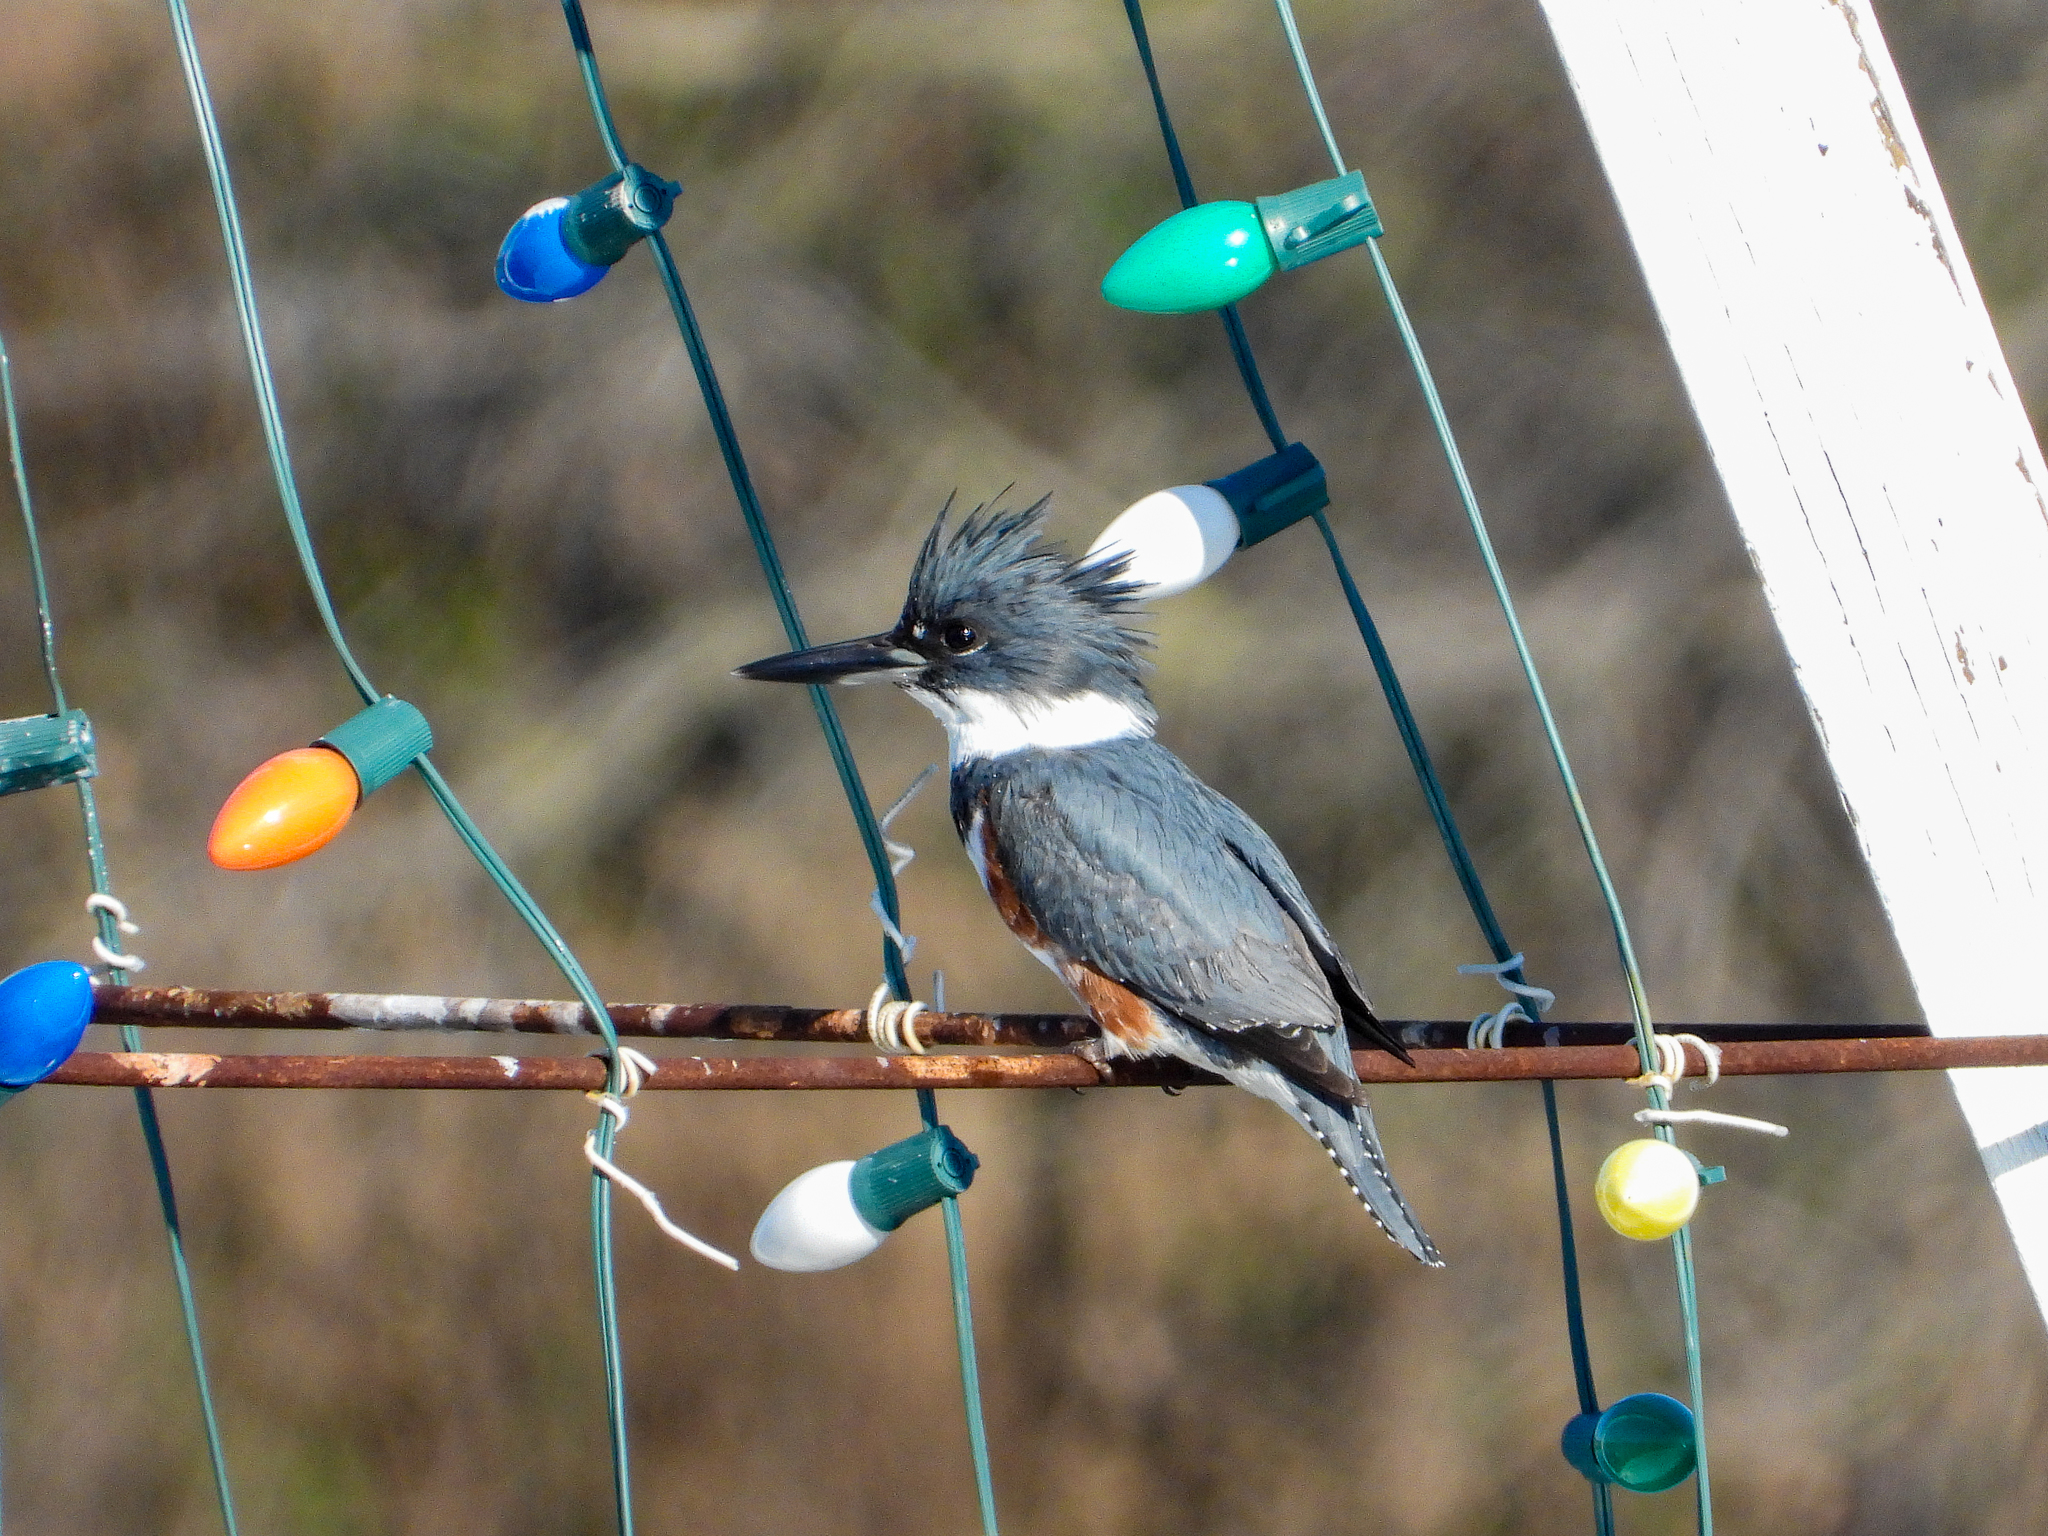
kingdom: Animalia
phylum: Chordata
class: Aves
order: Coraciiformes
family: Alcedinidae
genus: Megaceryle
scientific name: Megaceryle alcyon
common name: Belted kingfisher
